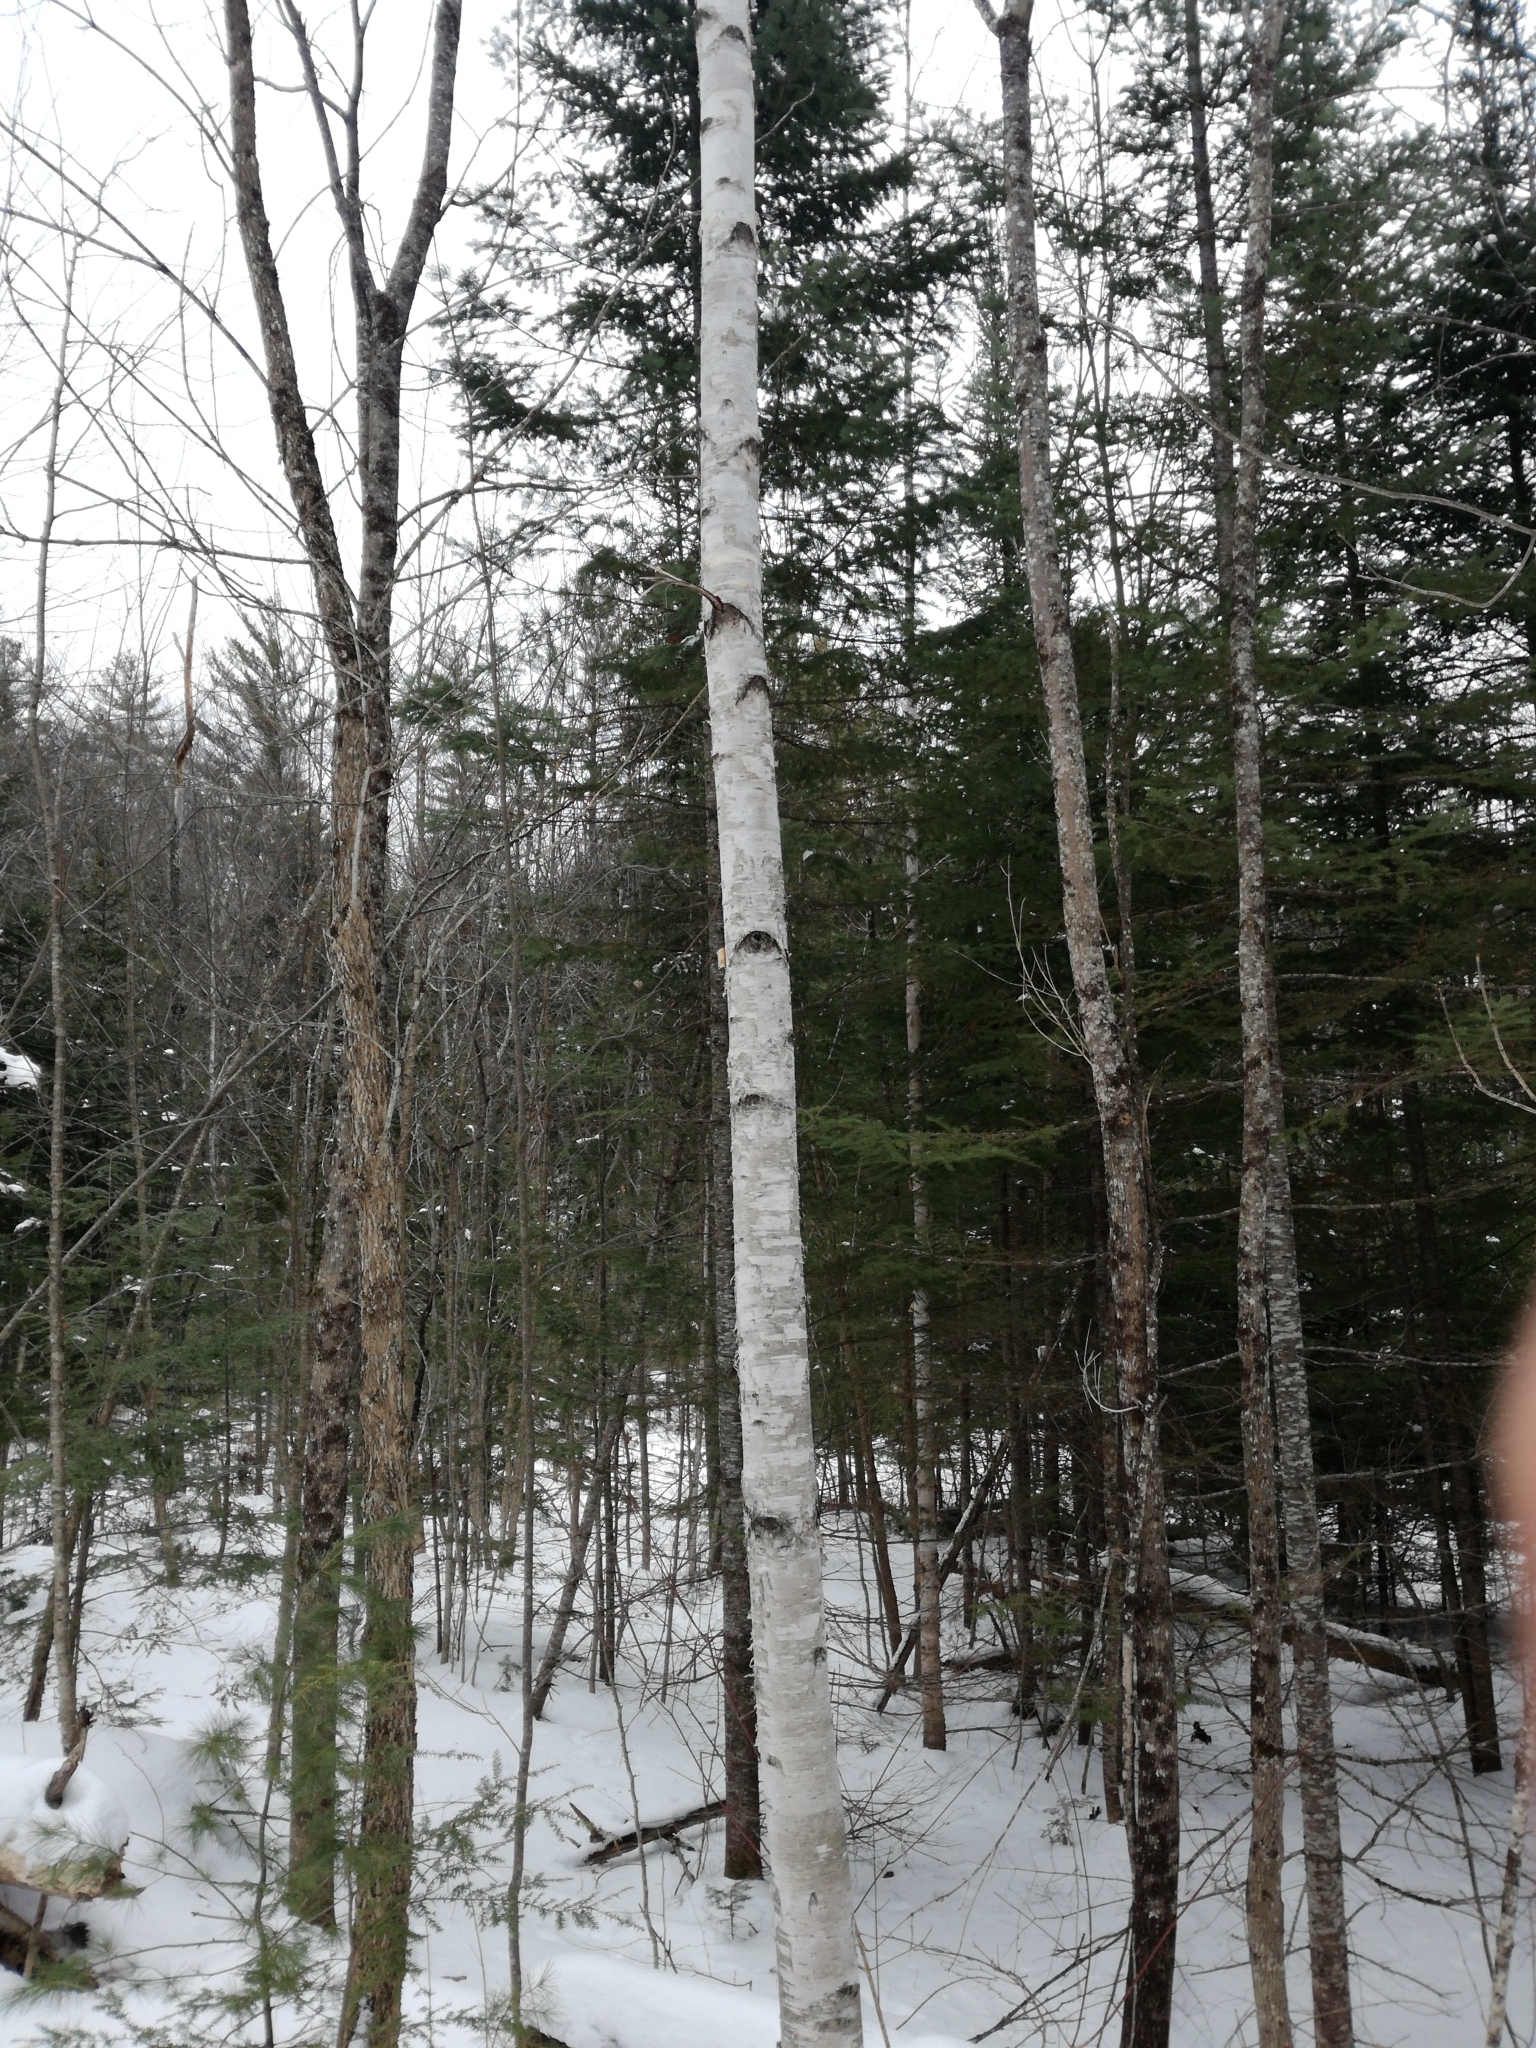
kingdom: Plantae
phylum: Tracheophyta
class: Magnoliopsida
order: Fagales
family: Betulaceae
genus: Betula
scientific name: Betula papyrifera
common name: Paper birch
